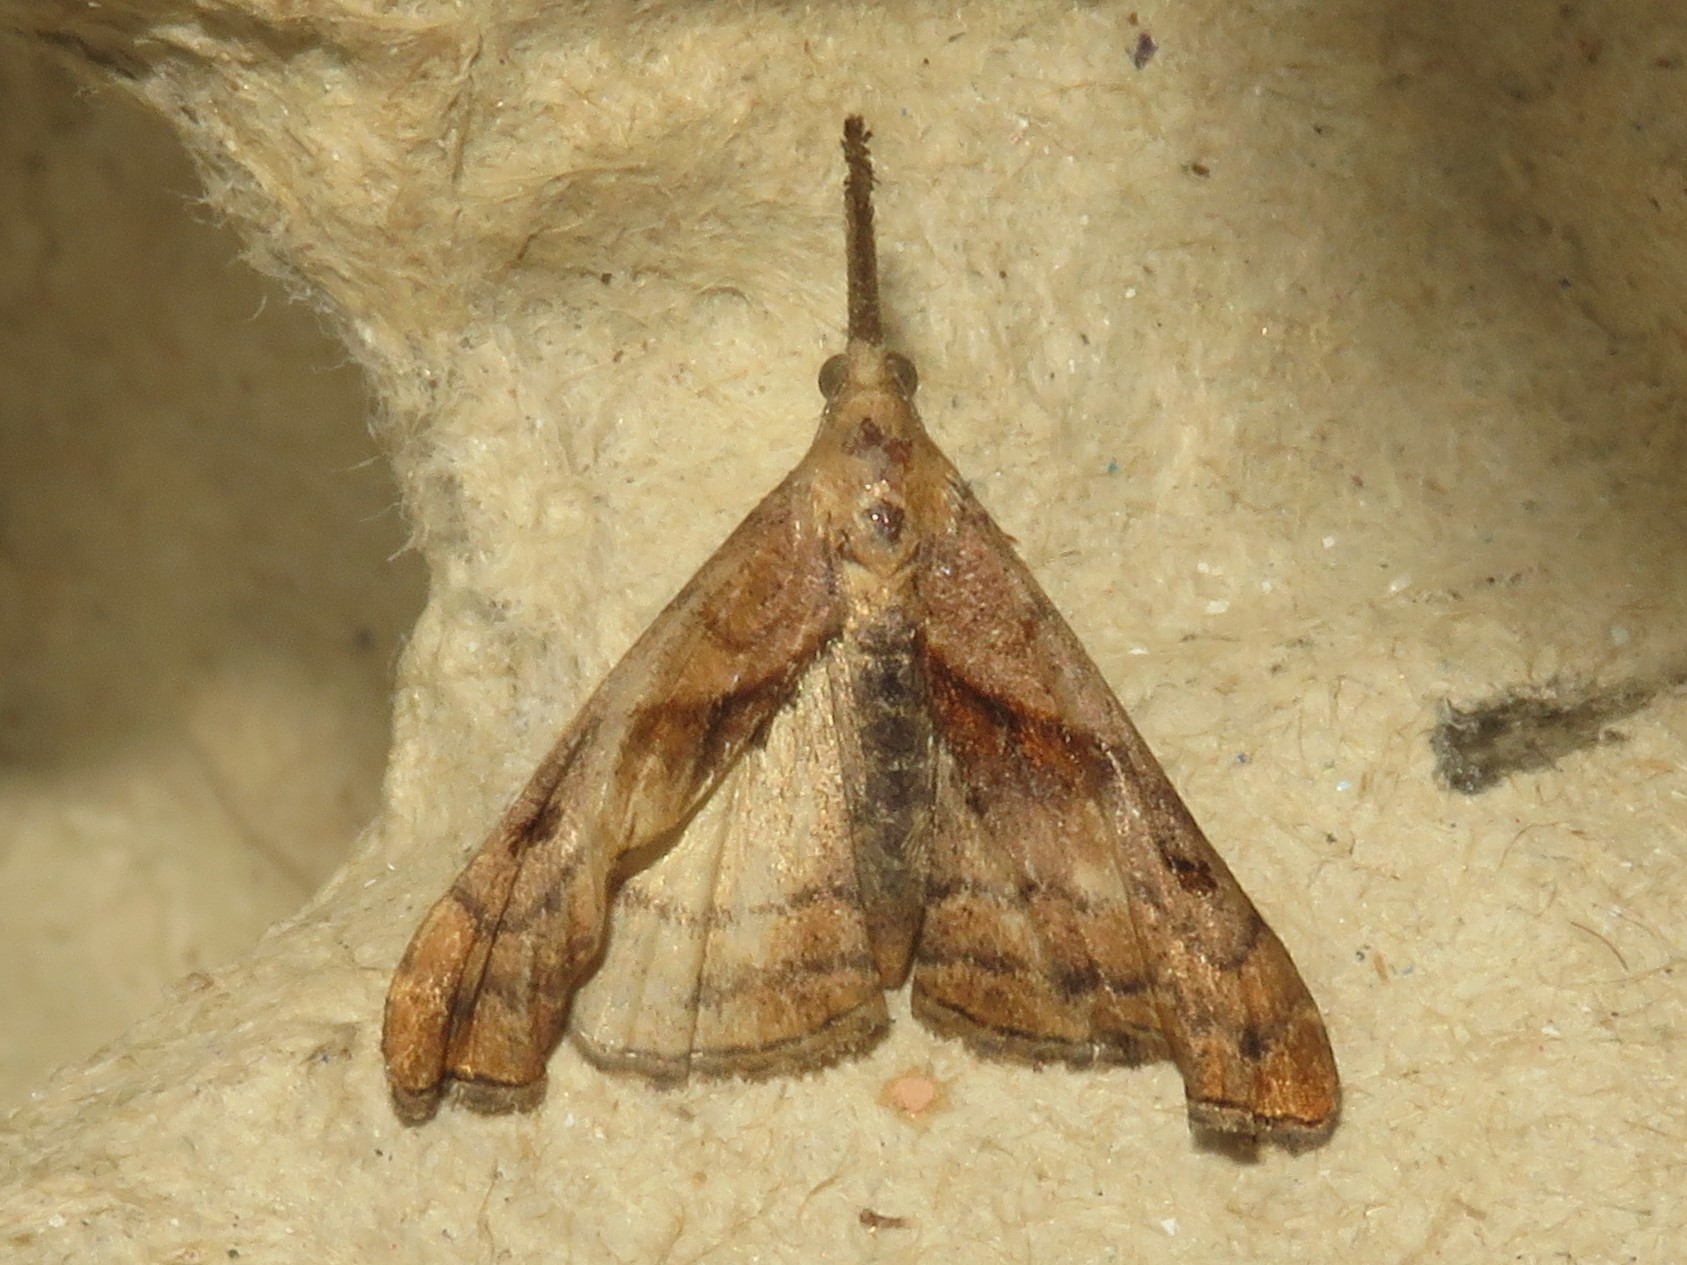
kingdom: Animalia
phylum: Arthropoda
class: Insecta
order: Lepidoptera
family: Erebidae
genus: Palthis
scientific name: Palthis angulalis
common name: Dark-spotted palthis moth
